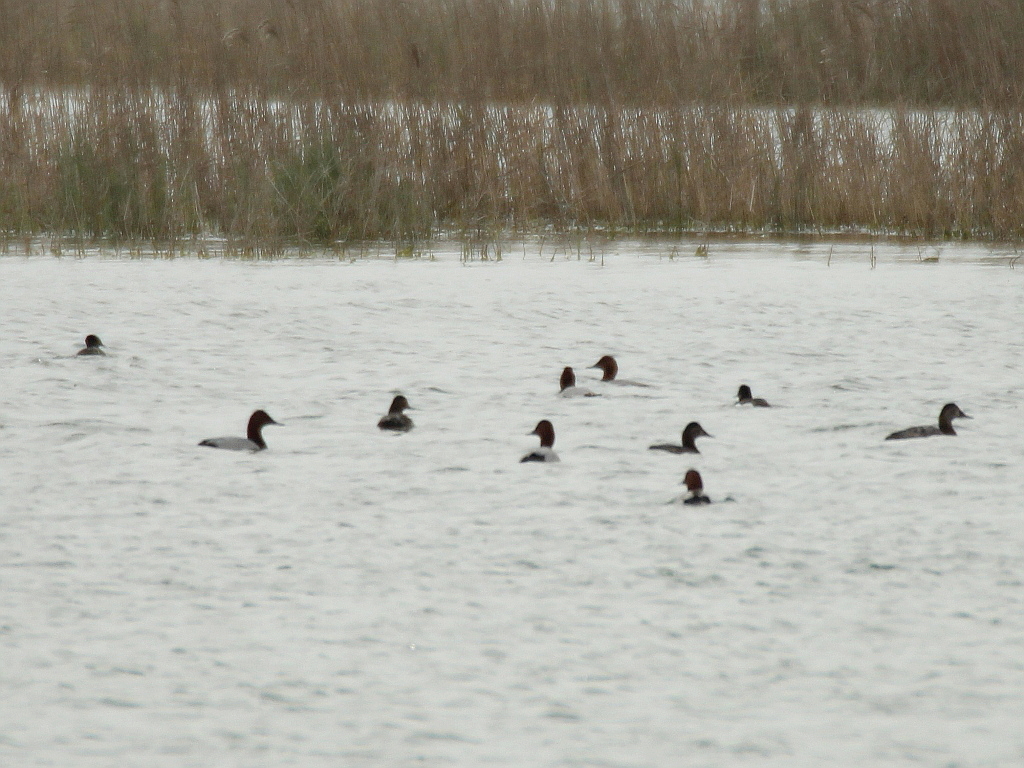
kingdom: Animalia
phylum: Chordata
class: Aves
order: Anseriformes
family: Anatidae
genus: Aythya
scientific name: Aythya ferina
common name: Common pochard
